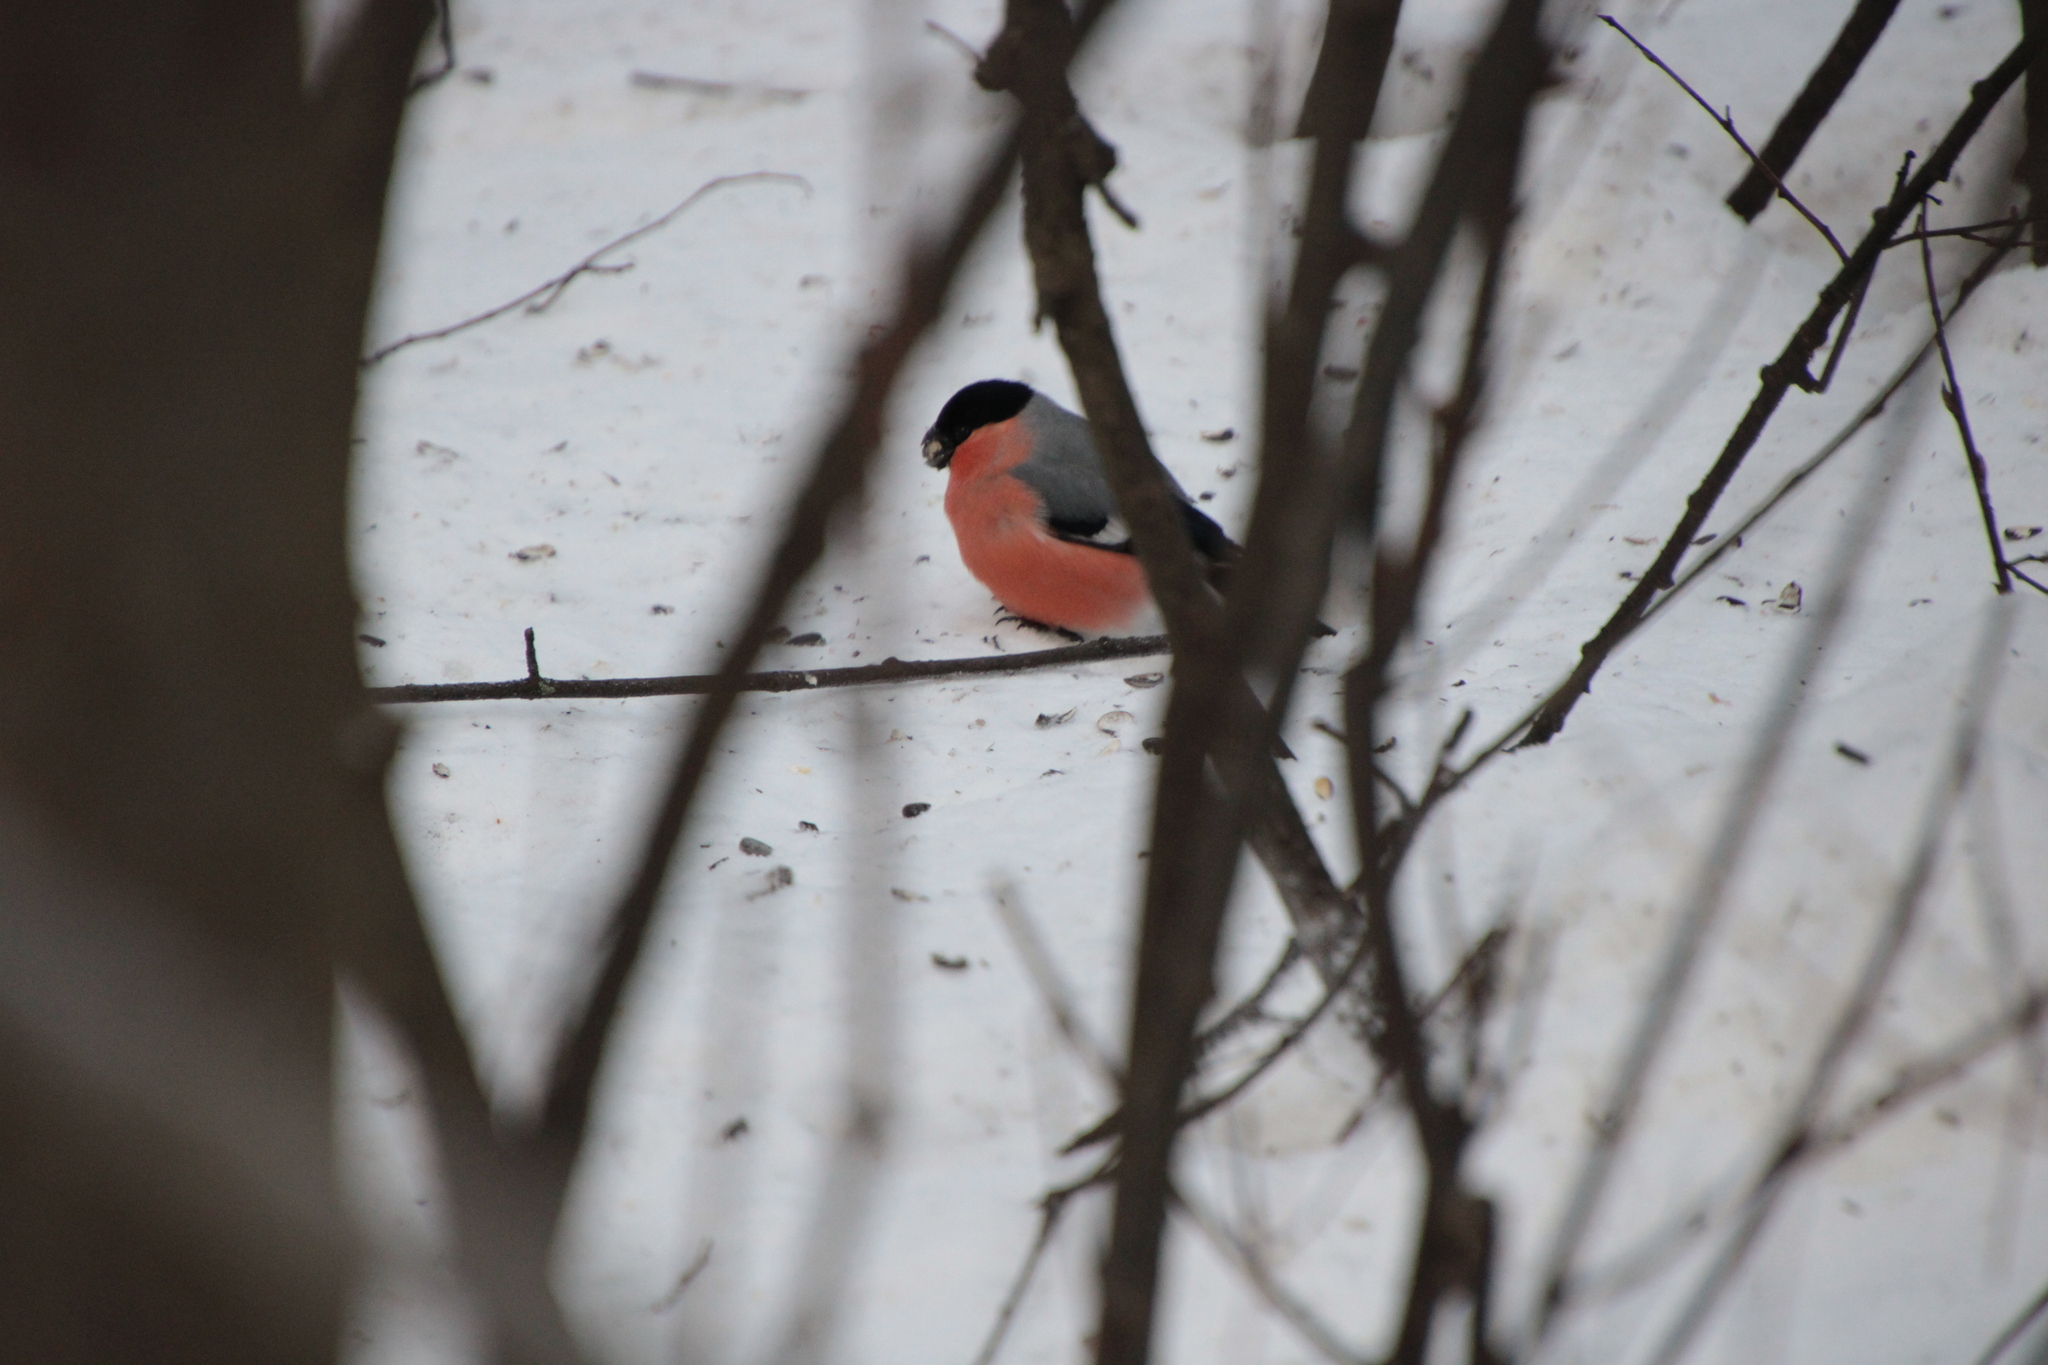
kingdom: Animalia
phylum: Chordata
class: Aves
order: Passeriformes
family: Fringillidae
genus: Pyrrhula
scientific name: Pyrrhula pyrrhula
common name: Eurasian bullfinch
